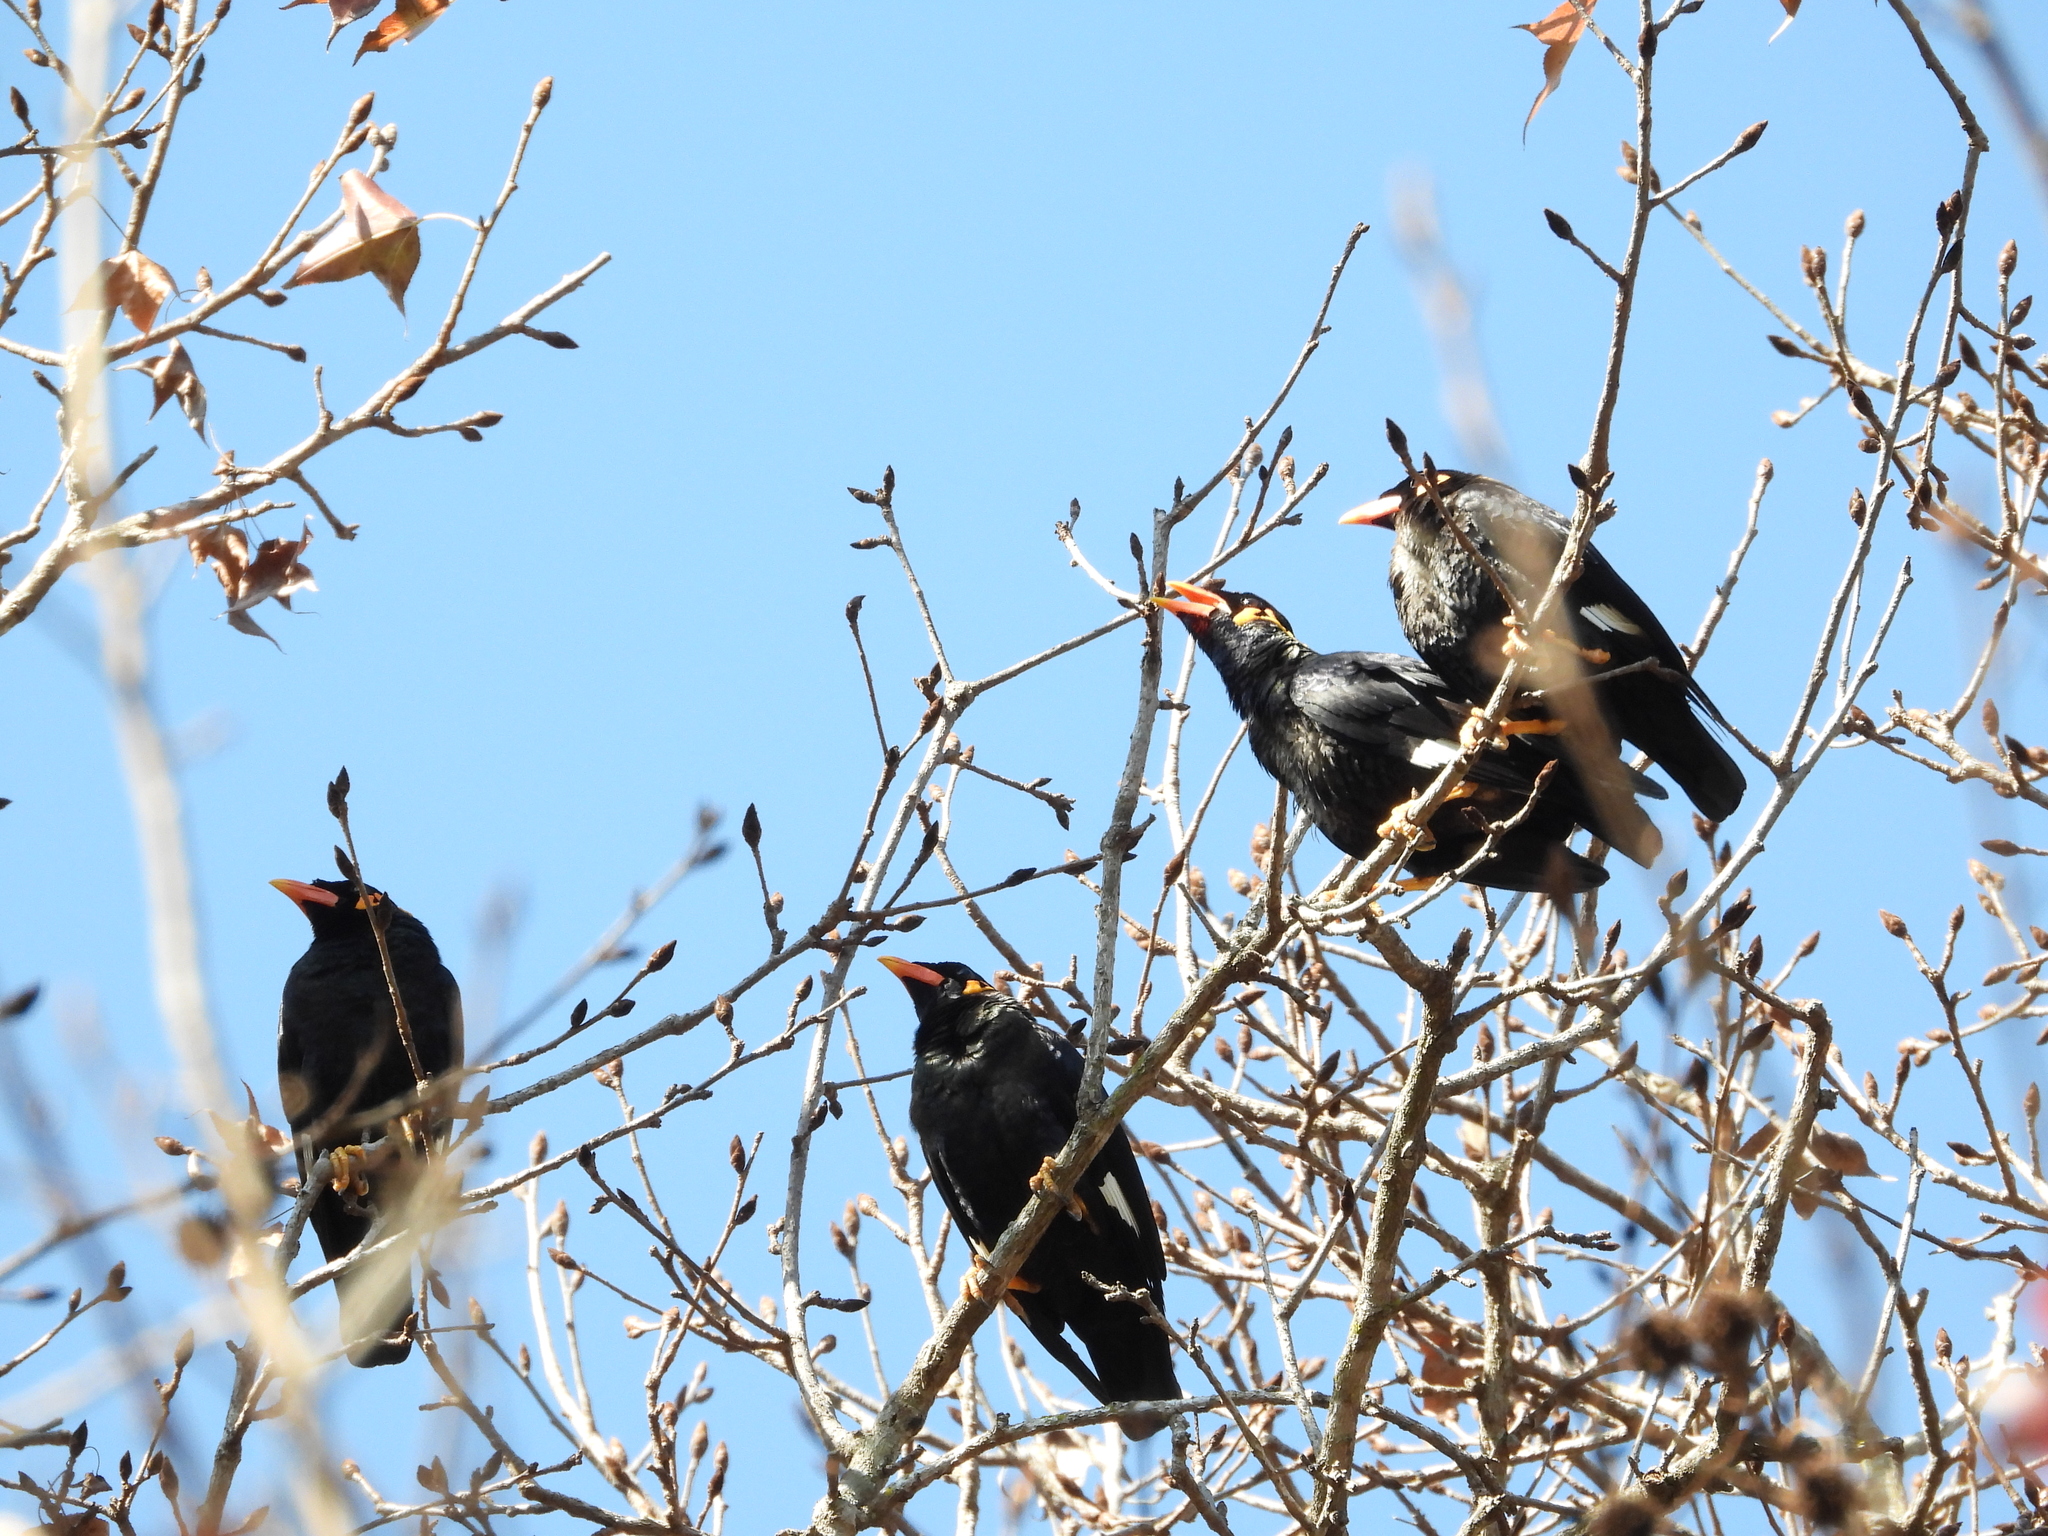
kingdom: Animalia
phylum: Chordata
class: Aves
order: Passeriformes
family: Sturnidae
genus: Gracula
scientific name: Gracula religiosa
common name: Common hill myna
